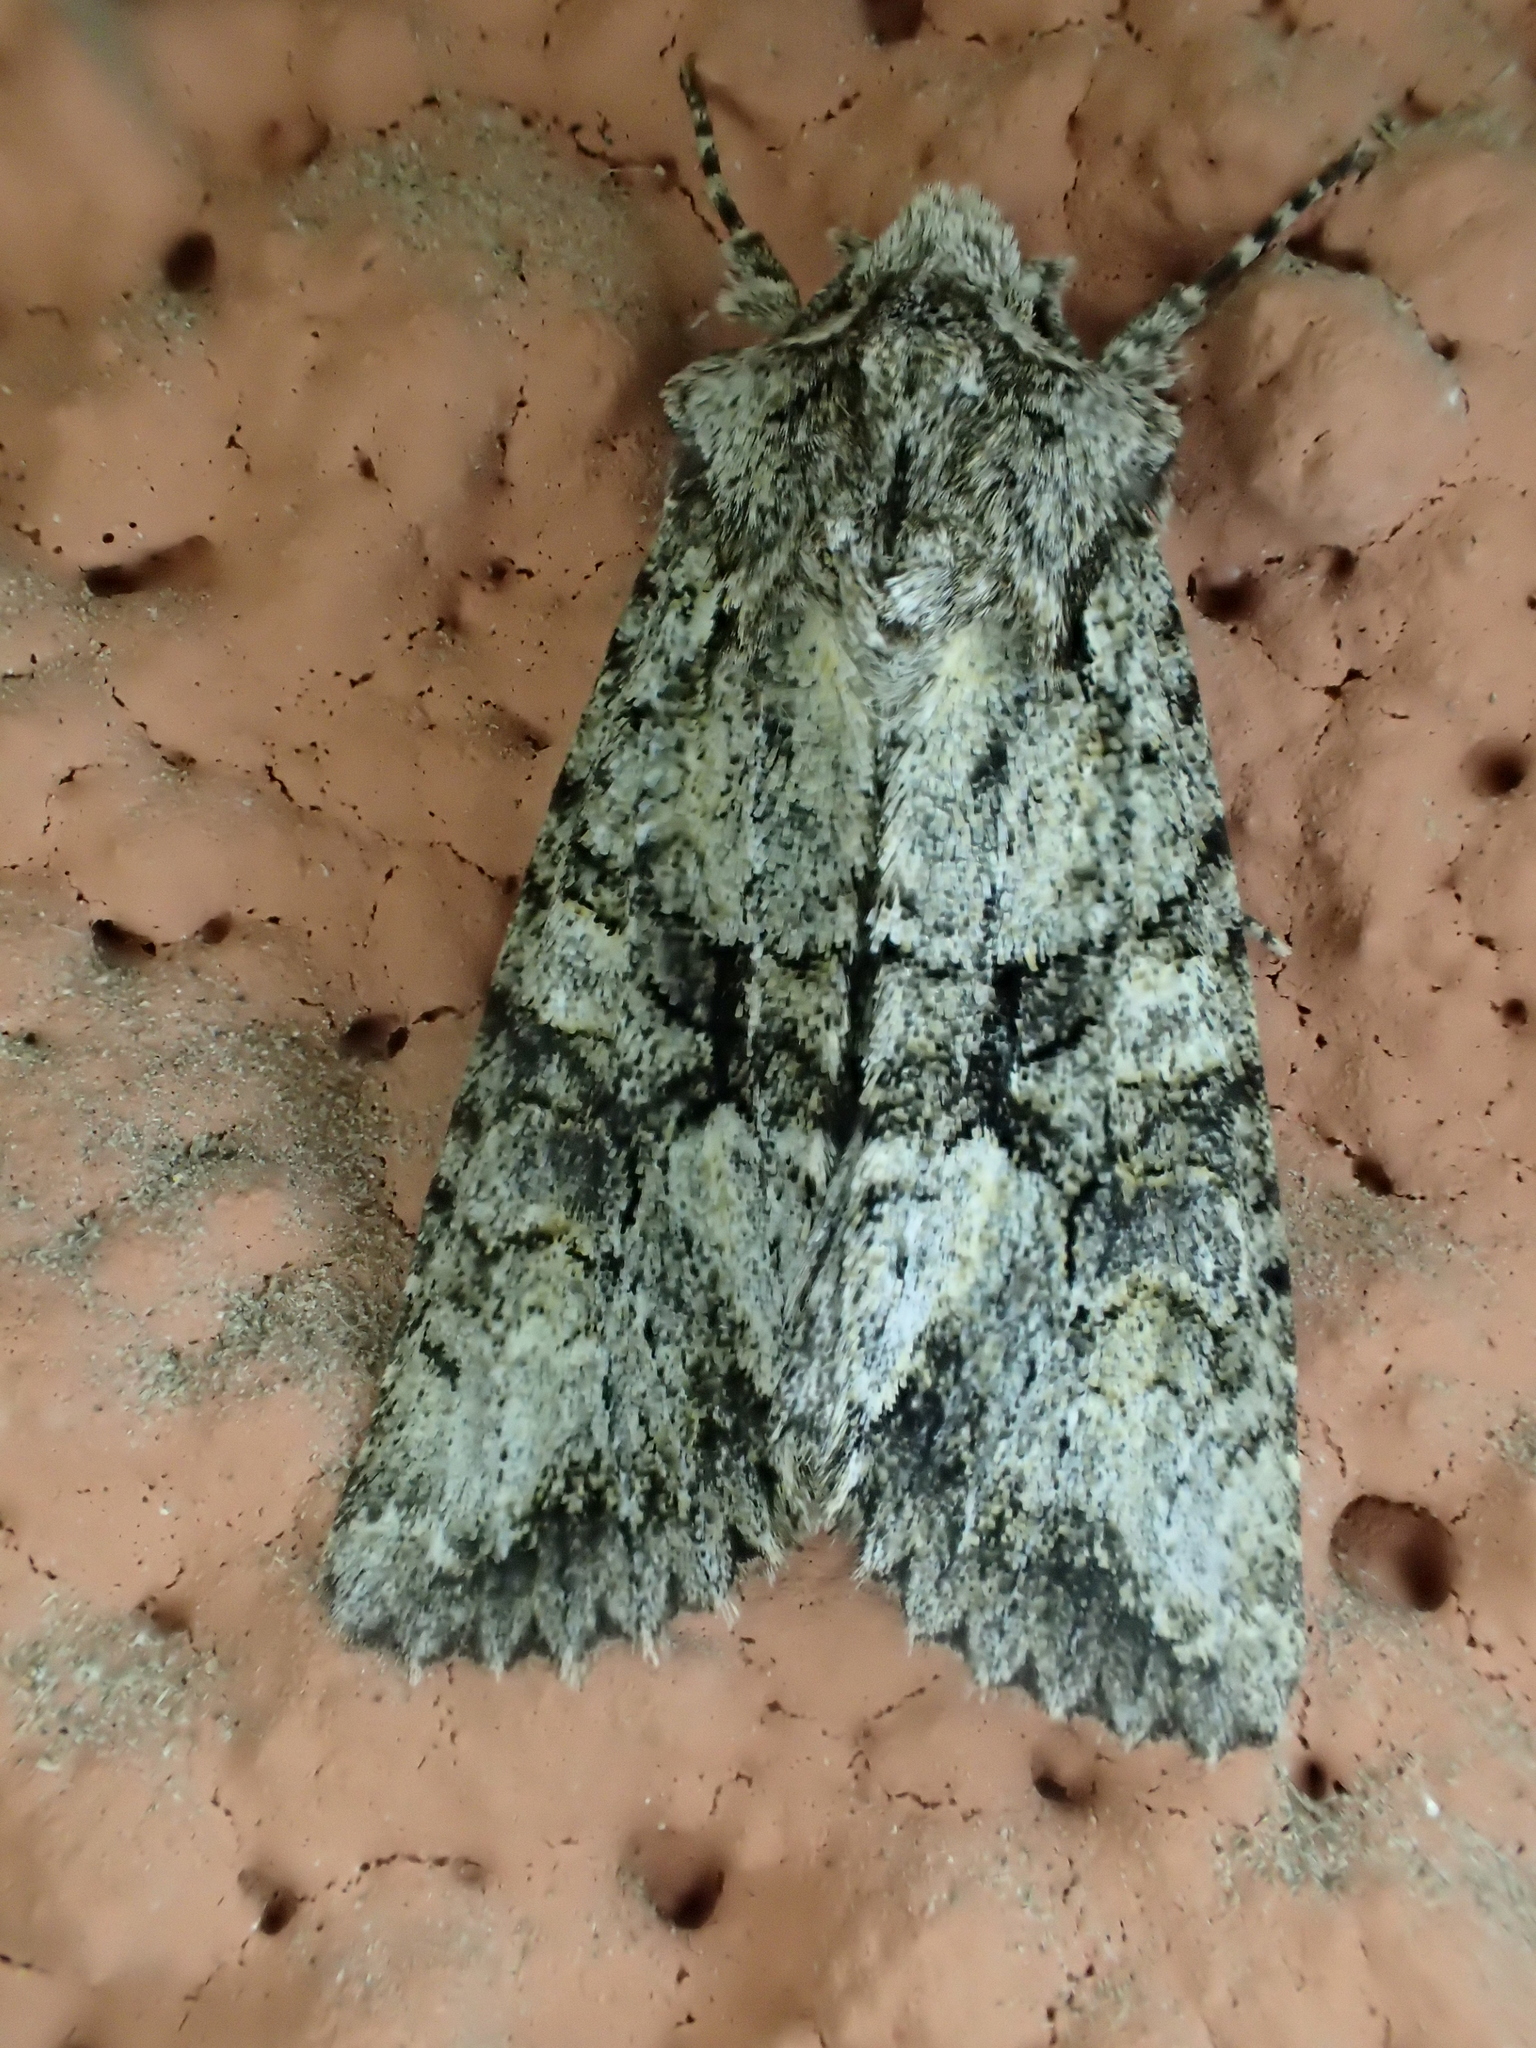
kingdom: Animalia
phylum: Arthropoda
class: Insecta
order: Lepidoptera
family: Noctuidae
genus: Dryobotodes
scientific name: Dryobotodes monochroma
